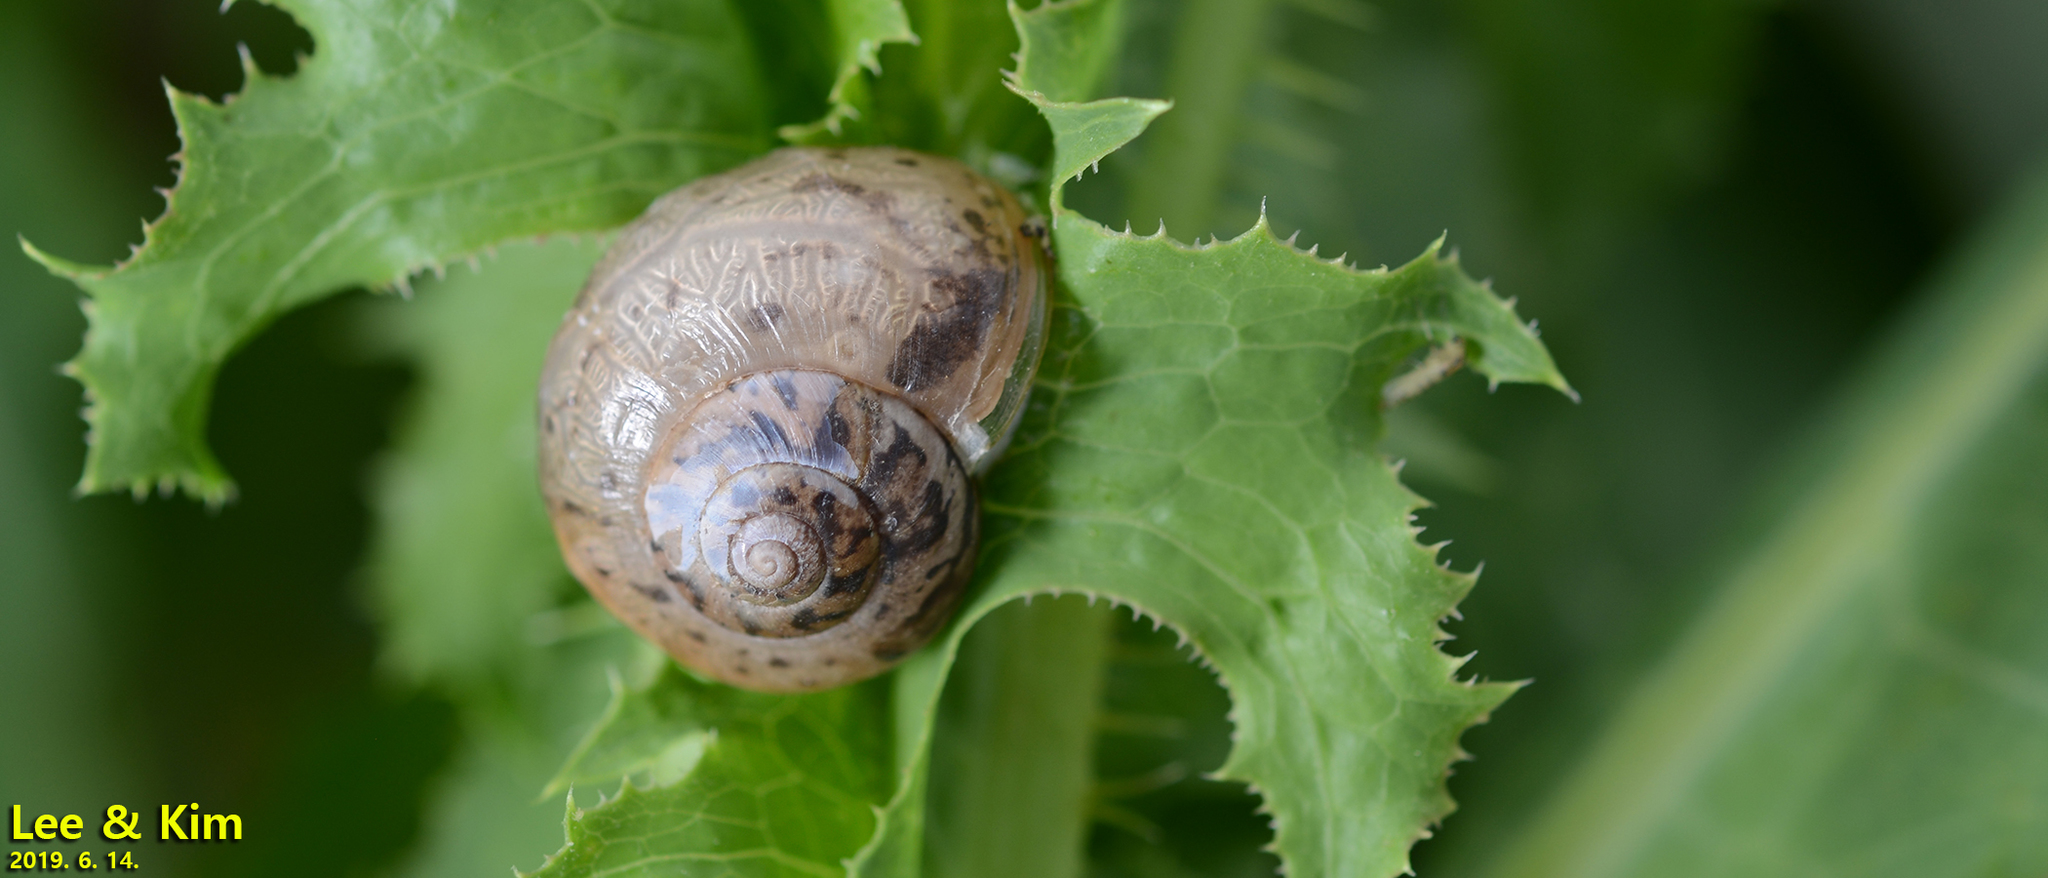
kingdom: Animalia
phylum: Mollusca
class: Gastropoda
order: Stylommatophora
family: Camaenidae
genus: Acusta
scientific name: Acusta redfieldi
